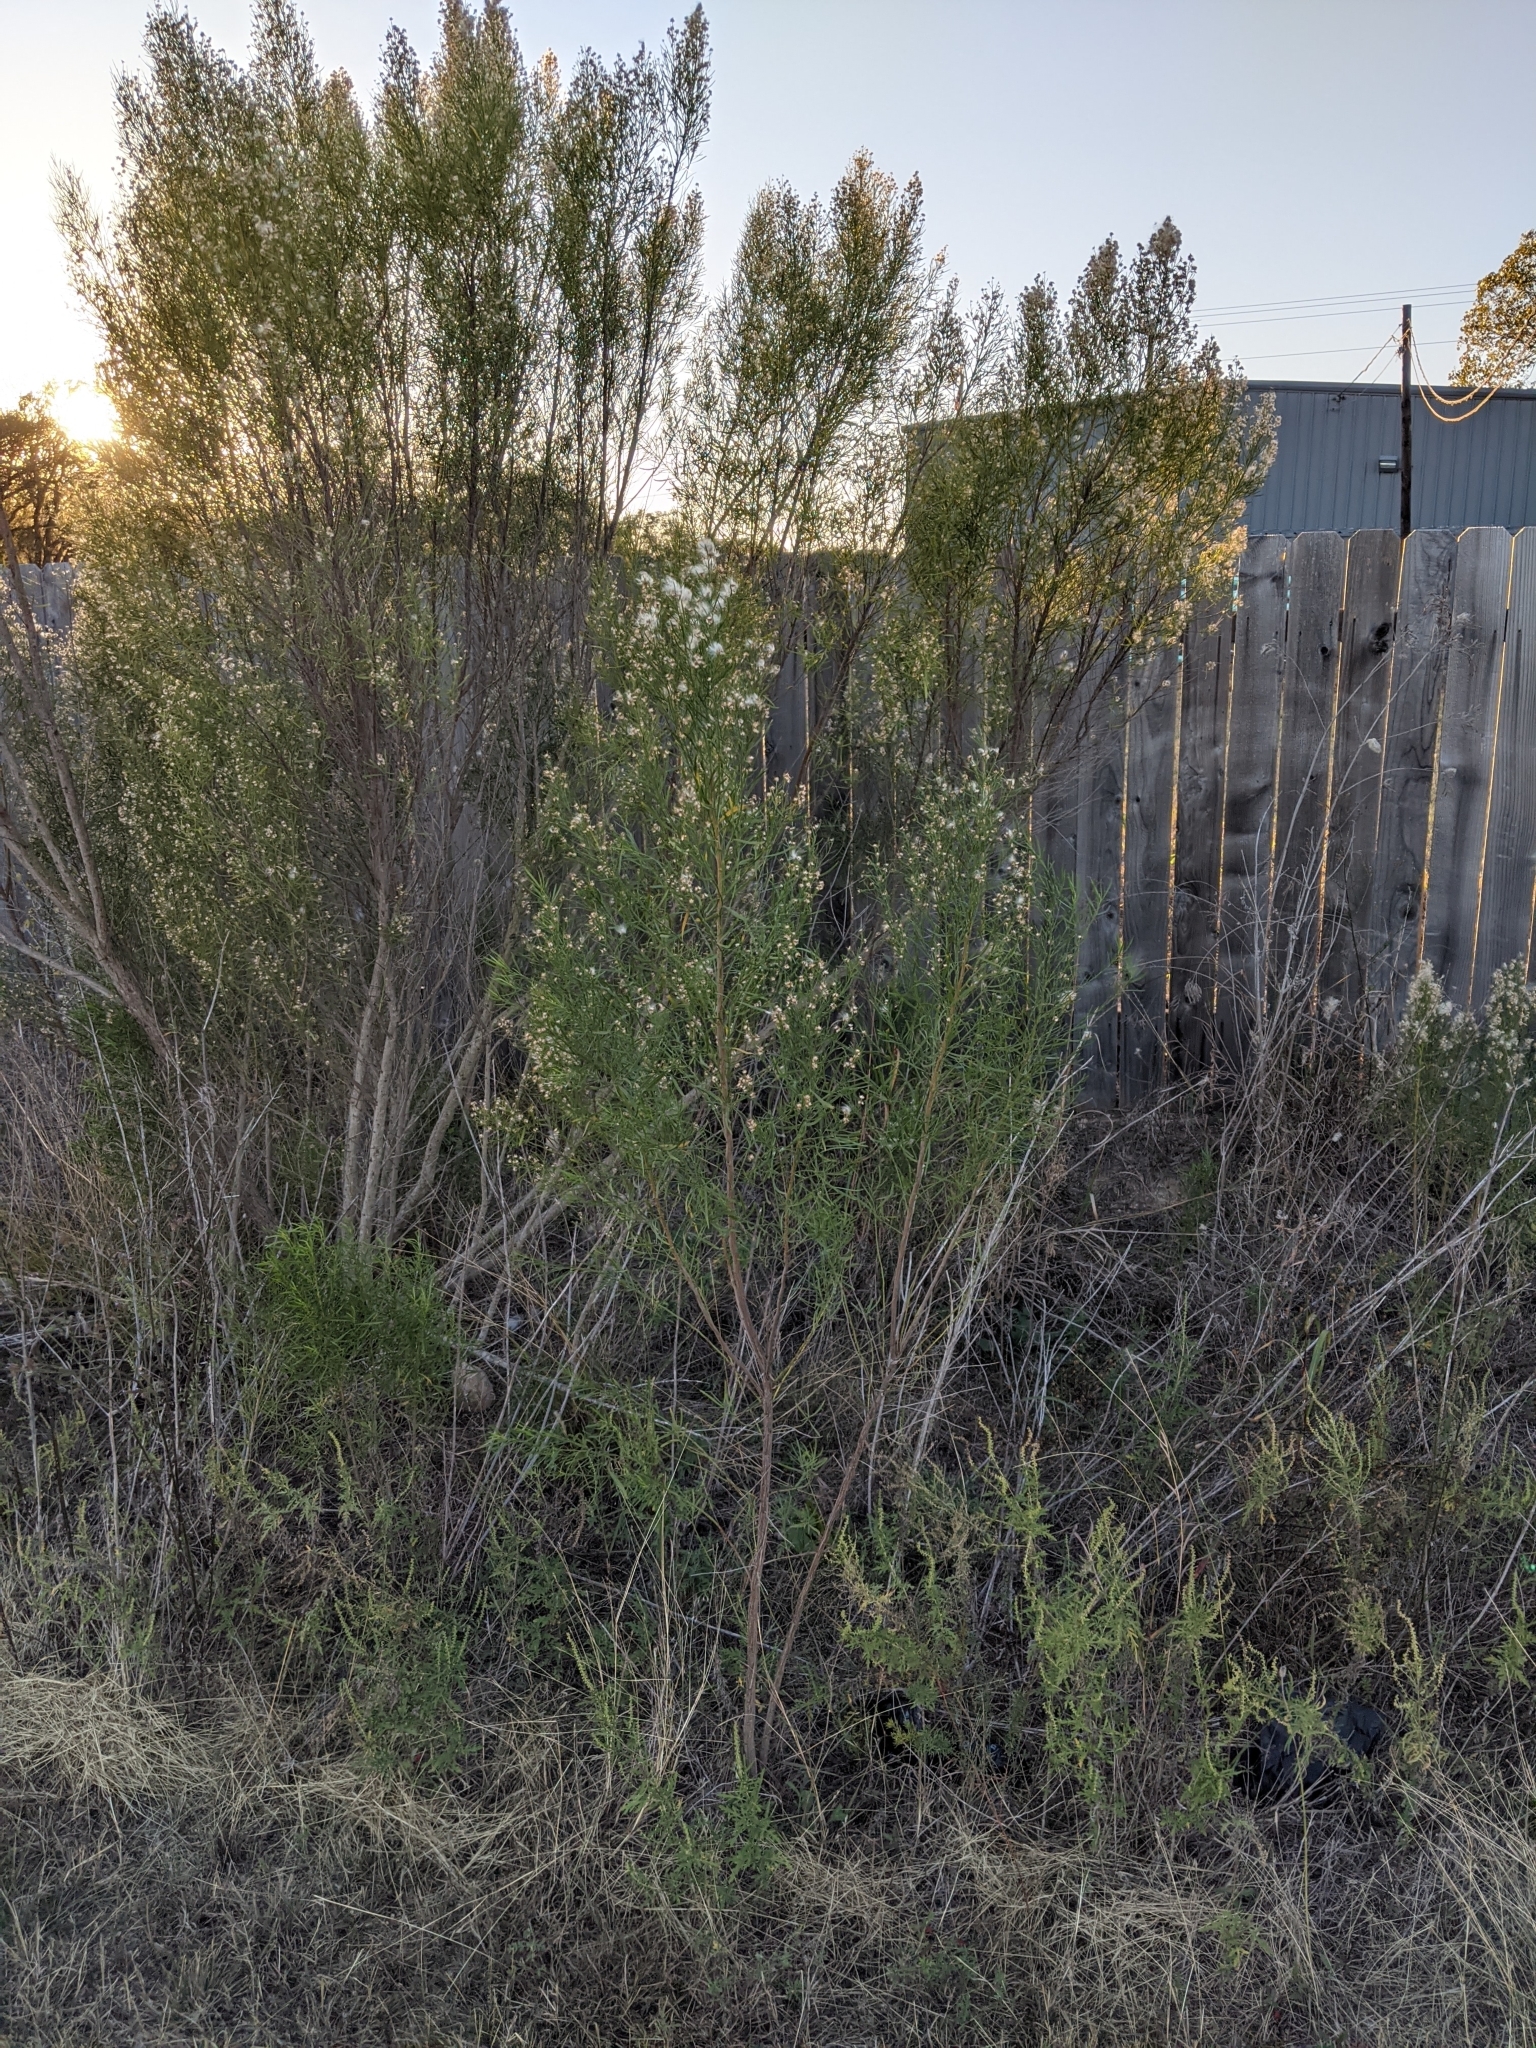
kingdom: Plantae
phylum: Tracheophyta
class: Magnoliopsida
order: Asterales
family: Asteraceae
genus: Baccharis
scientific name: Baccharis neglecta
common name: Roosevelt-weed
